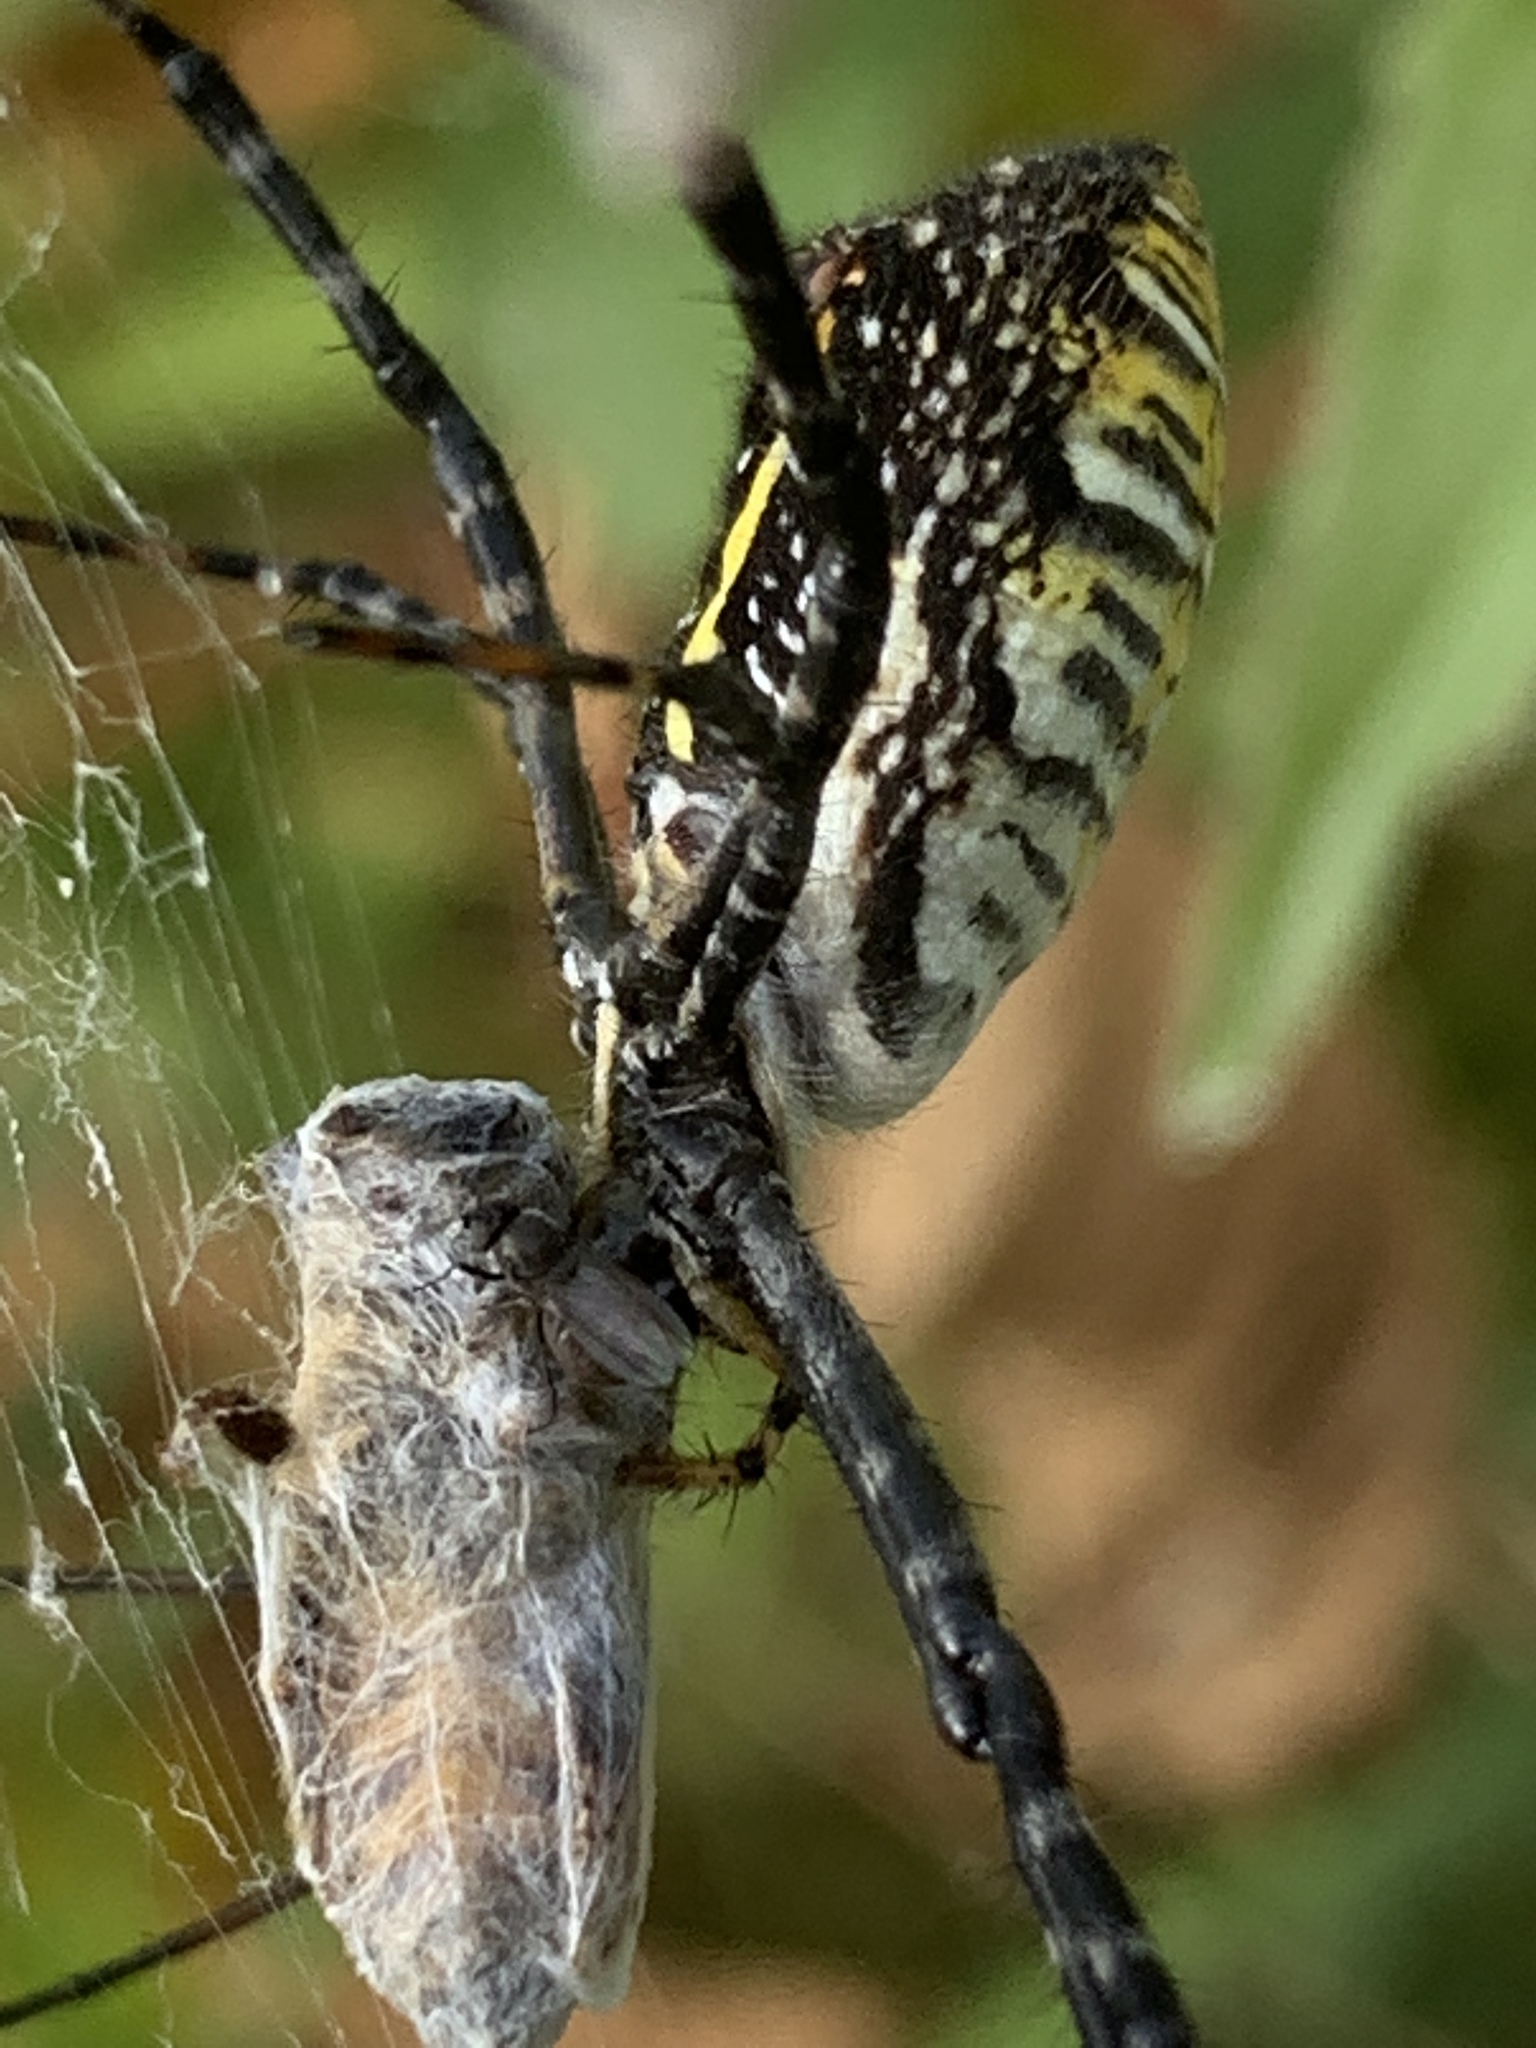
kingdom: Animalia
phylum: Arthropoda
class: Arachnida
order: Araneae
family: Araneidae
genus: Argiope
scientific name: Argiope trifasciata
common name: Banded garden spider
